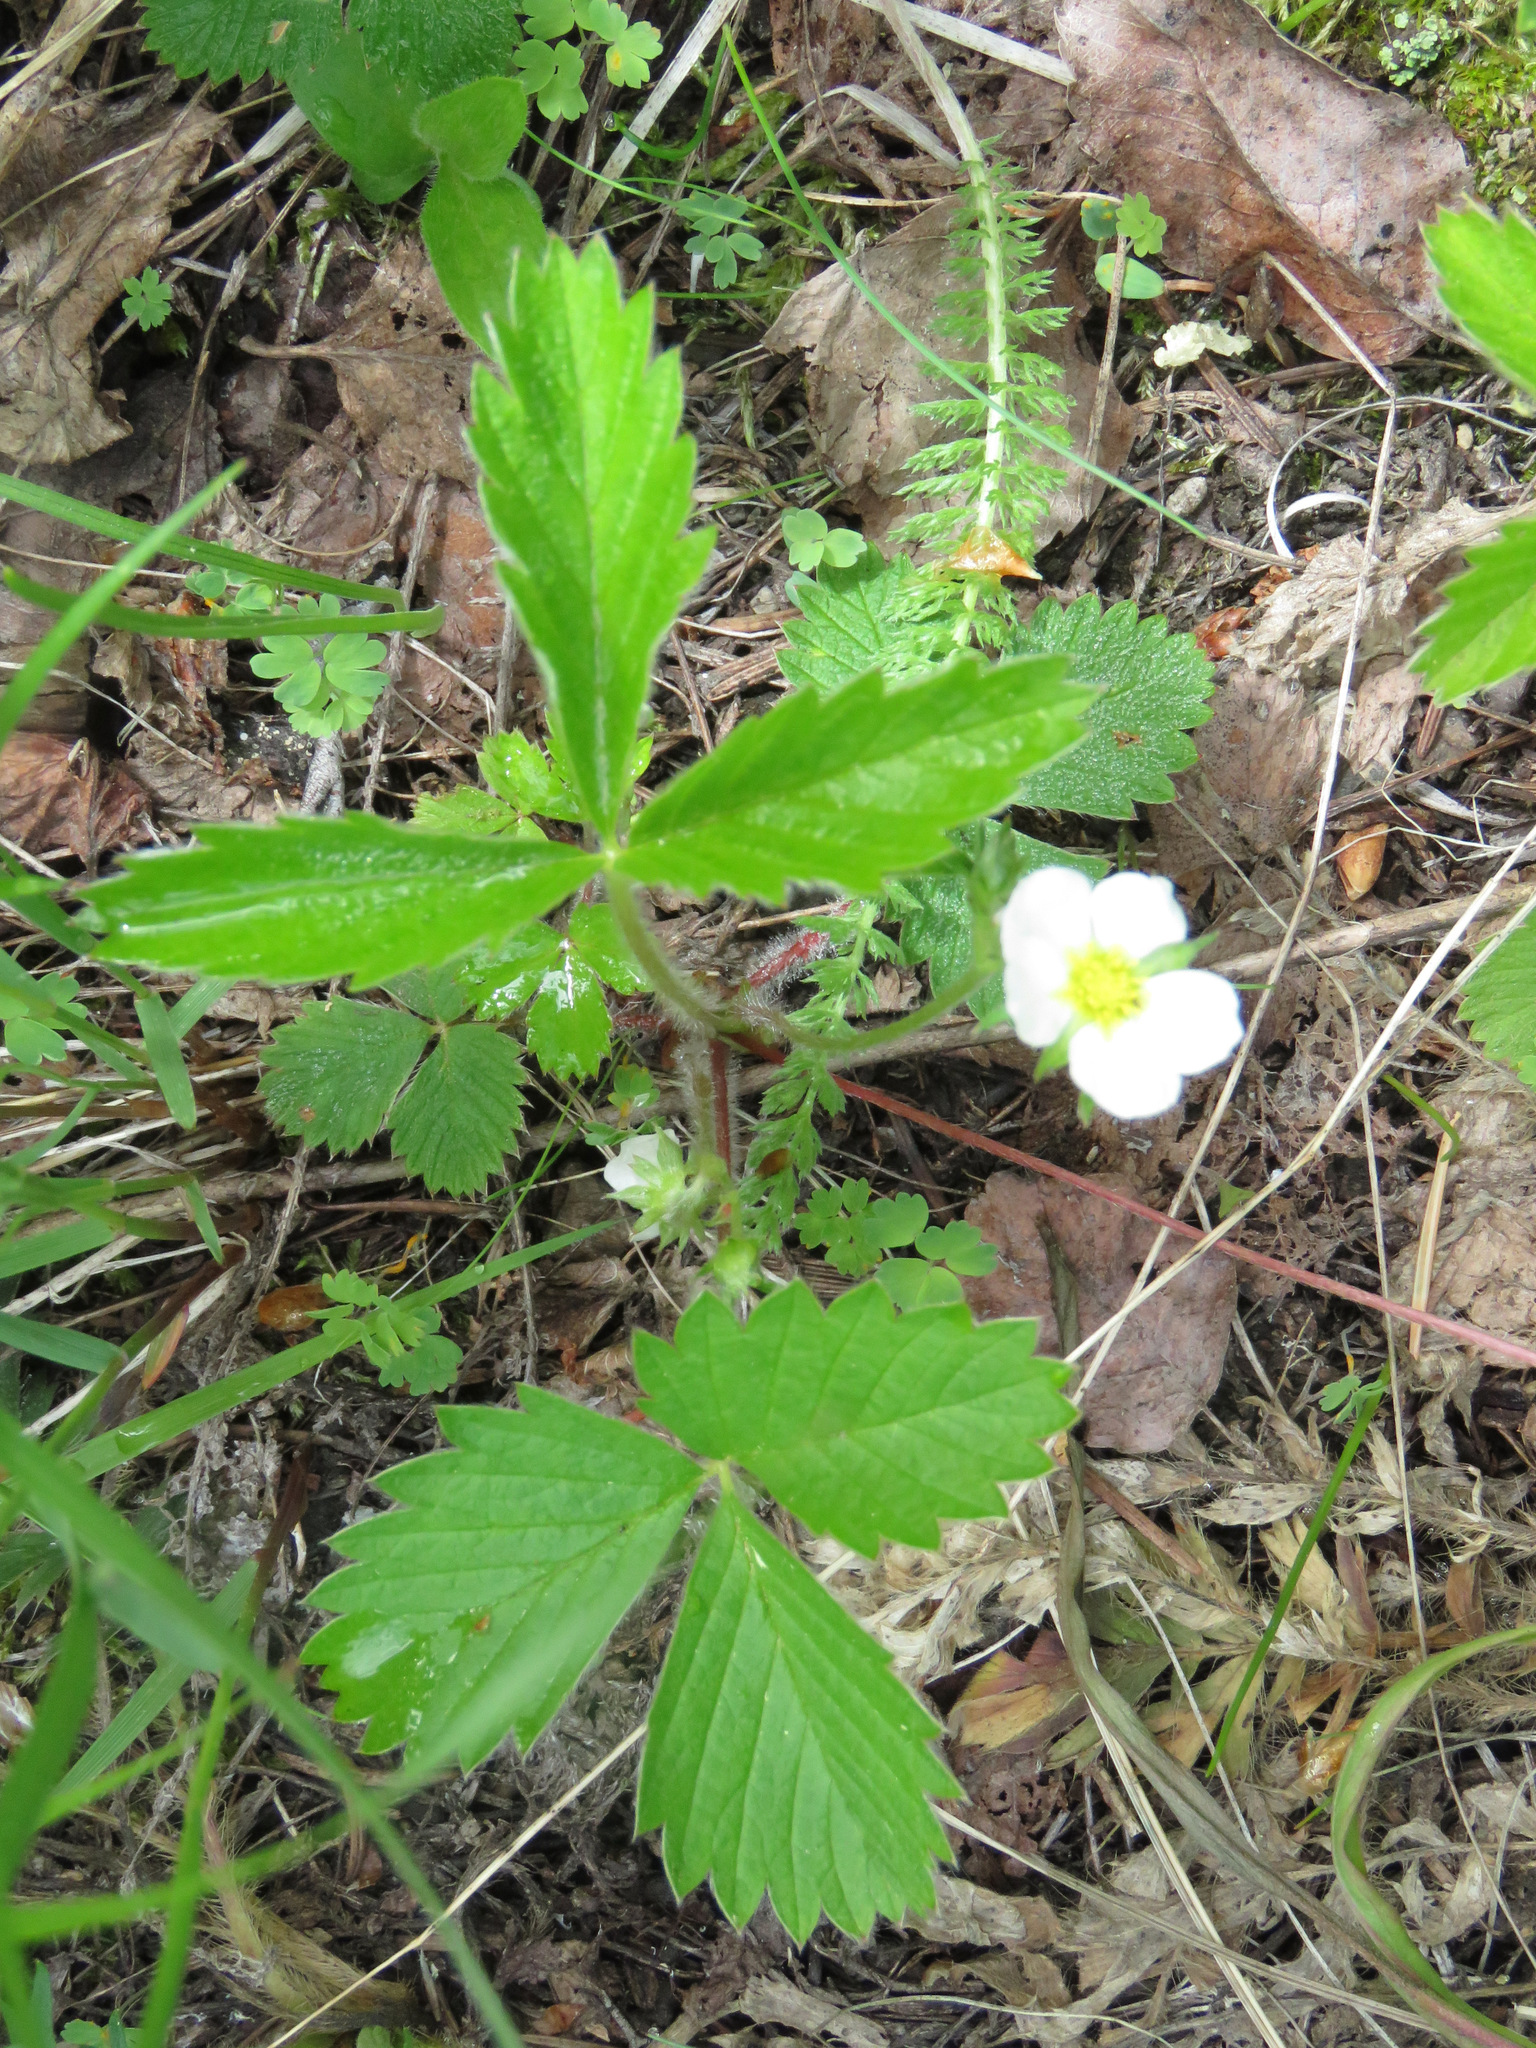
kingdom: Plantae
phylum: Tracheophyta
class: Magnoliopsida
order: Rosales
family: Rosaceae
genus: Fragaria
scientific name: Fragaria vesca
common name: Wild strawberry
